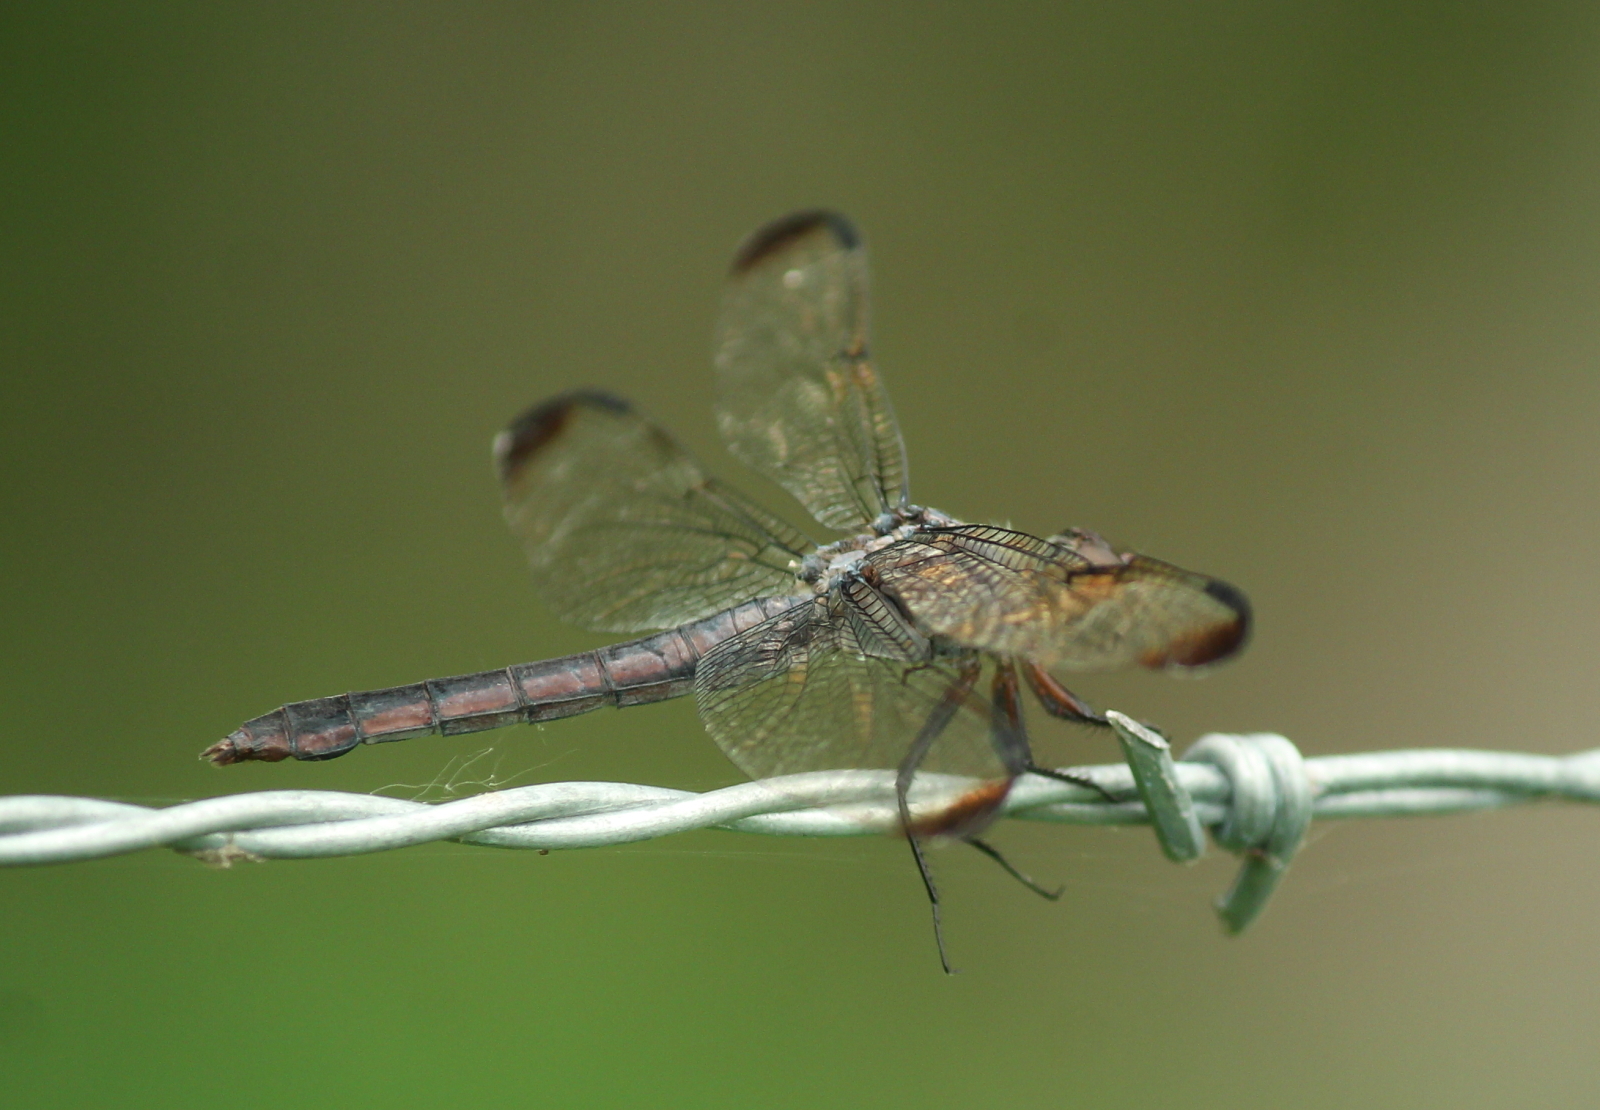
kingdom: Animalia
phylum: Arthropoda
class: Insecta
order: Odonata
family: Libellulidae
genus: Libellula
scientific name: Libellula incesta
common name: Slaty skimmer
